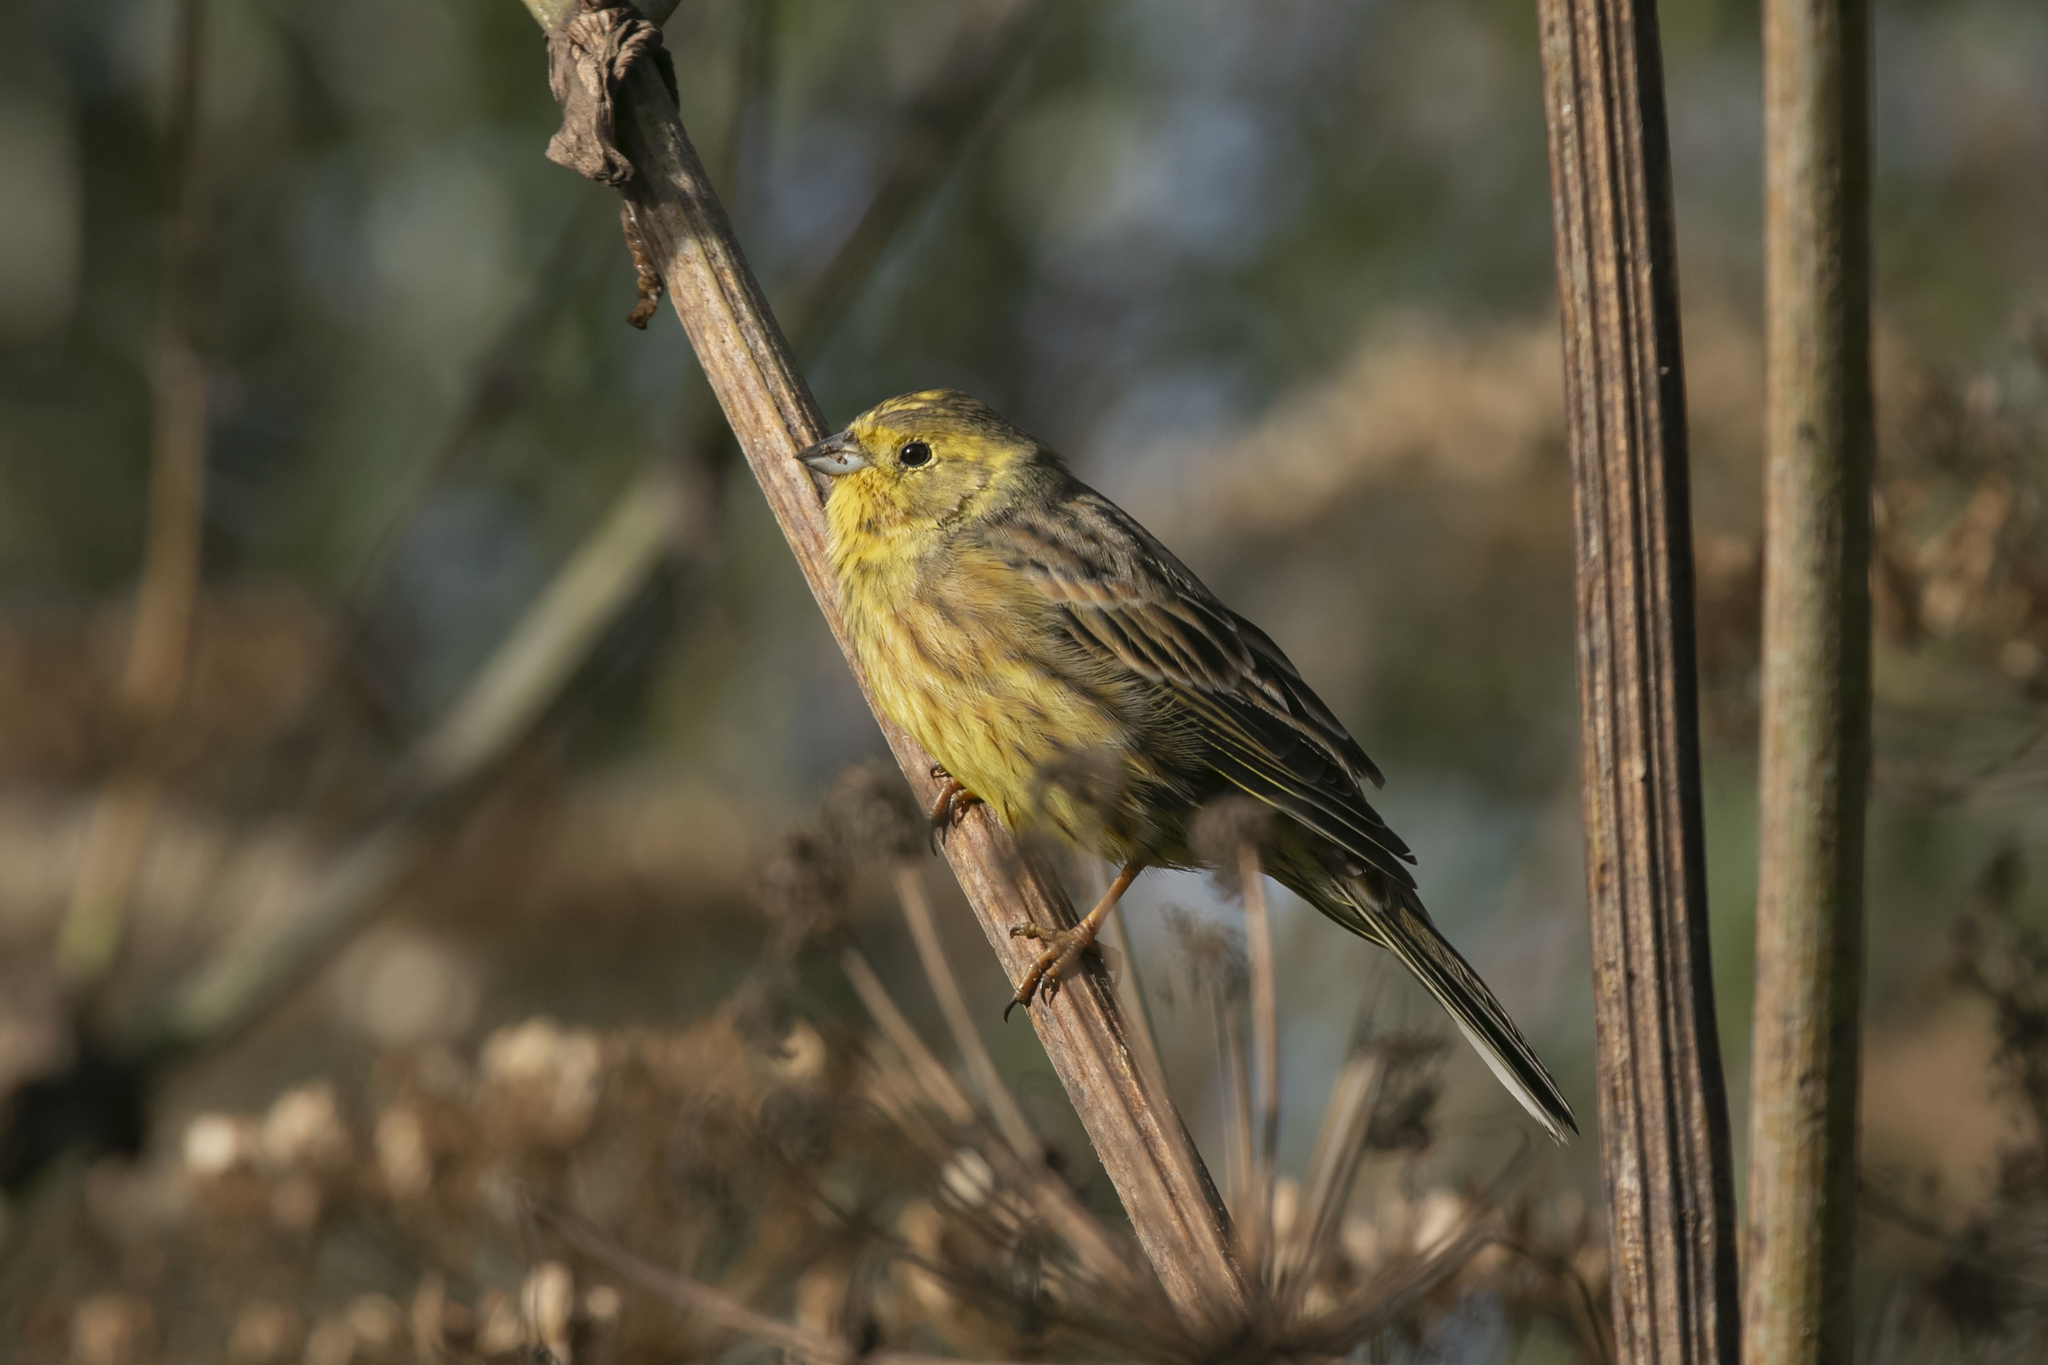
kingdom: Animalia
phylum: Chordata
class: Aves
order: Passeriformes
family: Emberizidae
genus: Emberiza
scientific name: Emberiza citrinella
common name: Yellowhammer
